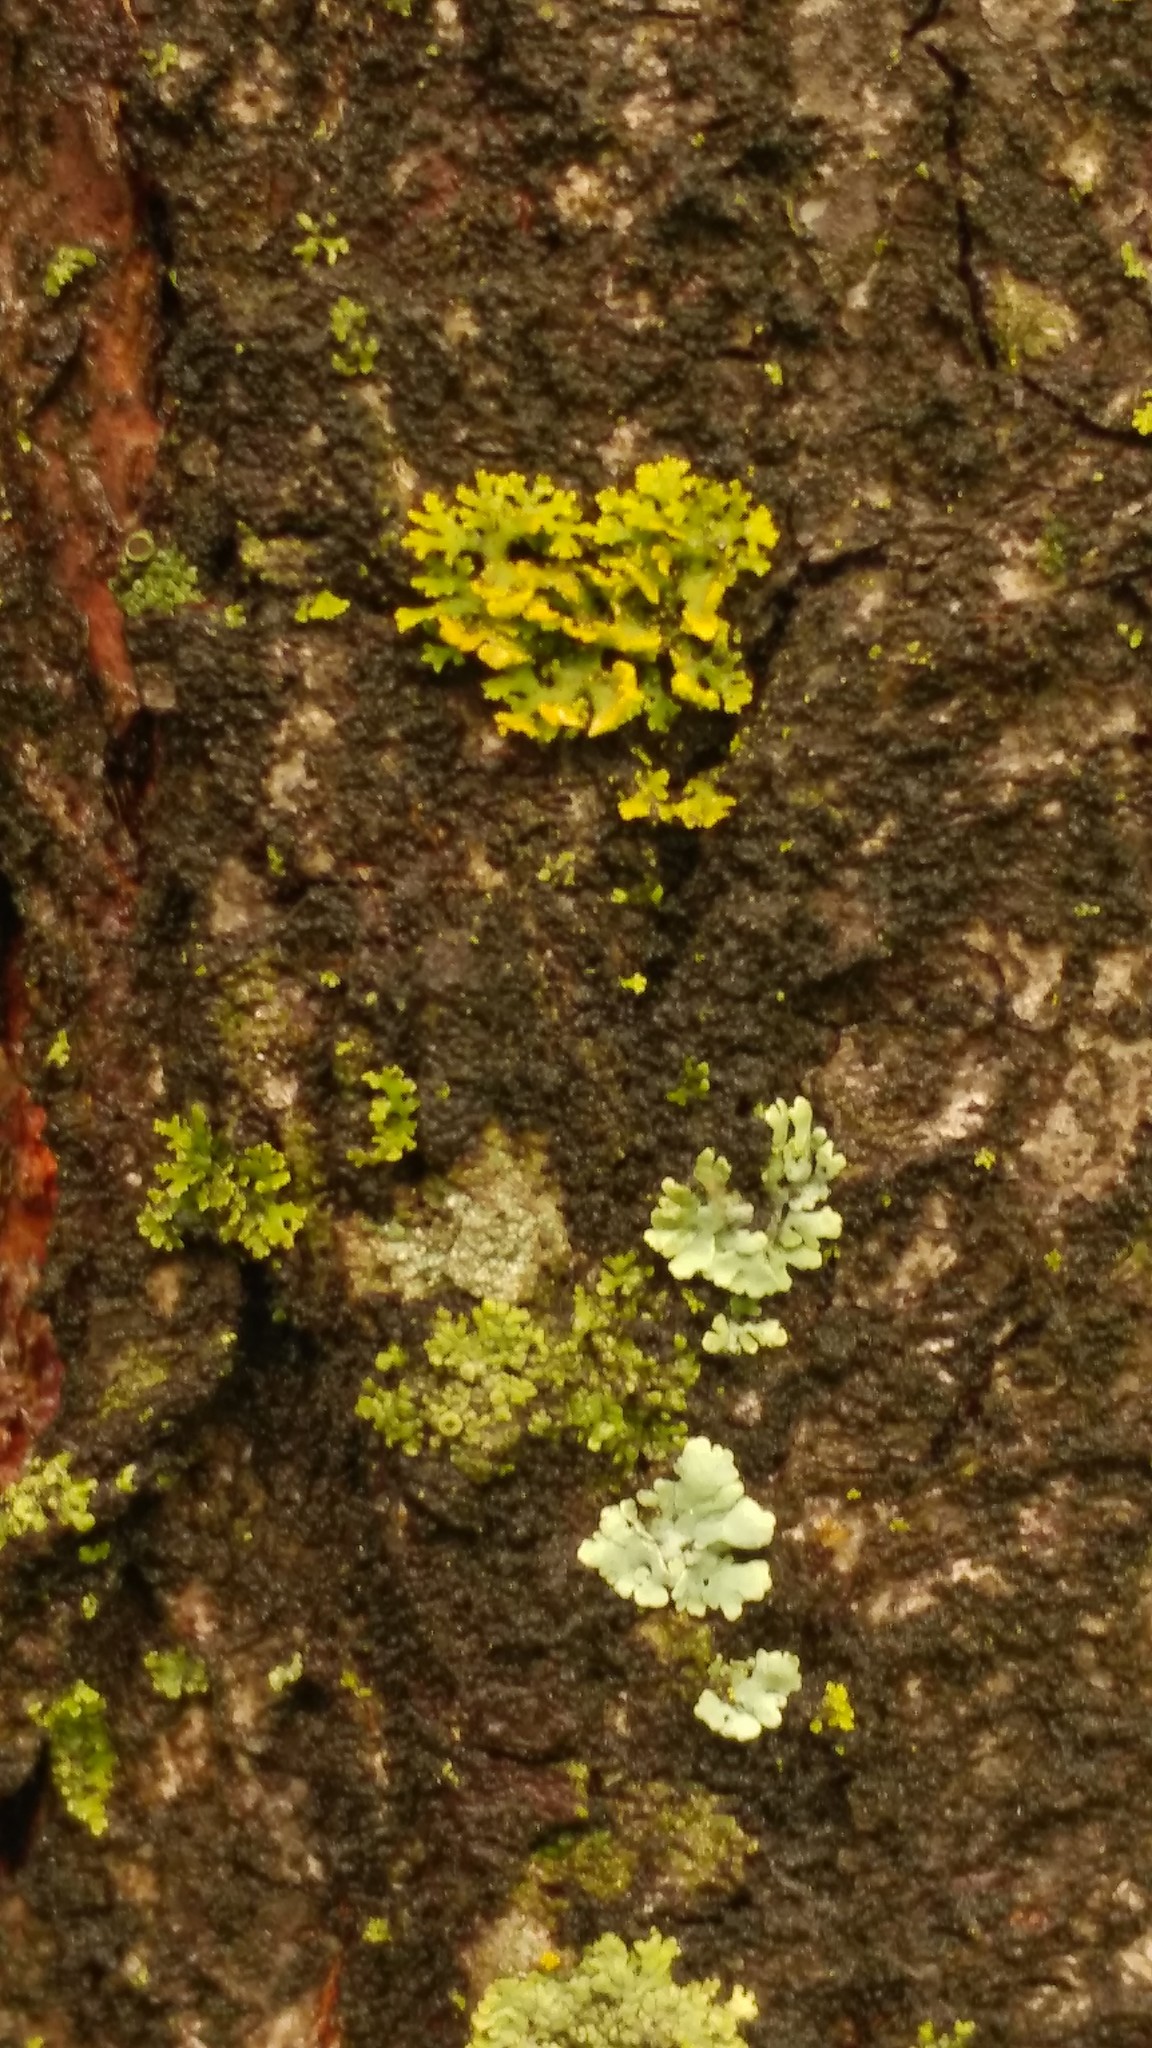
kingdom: Fungi
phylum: Ascomycota
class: Lecanoromycetes
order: Teloschistales
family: Teloschistaceae
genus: Gallowayella
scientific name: Gallowayella weberi
